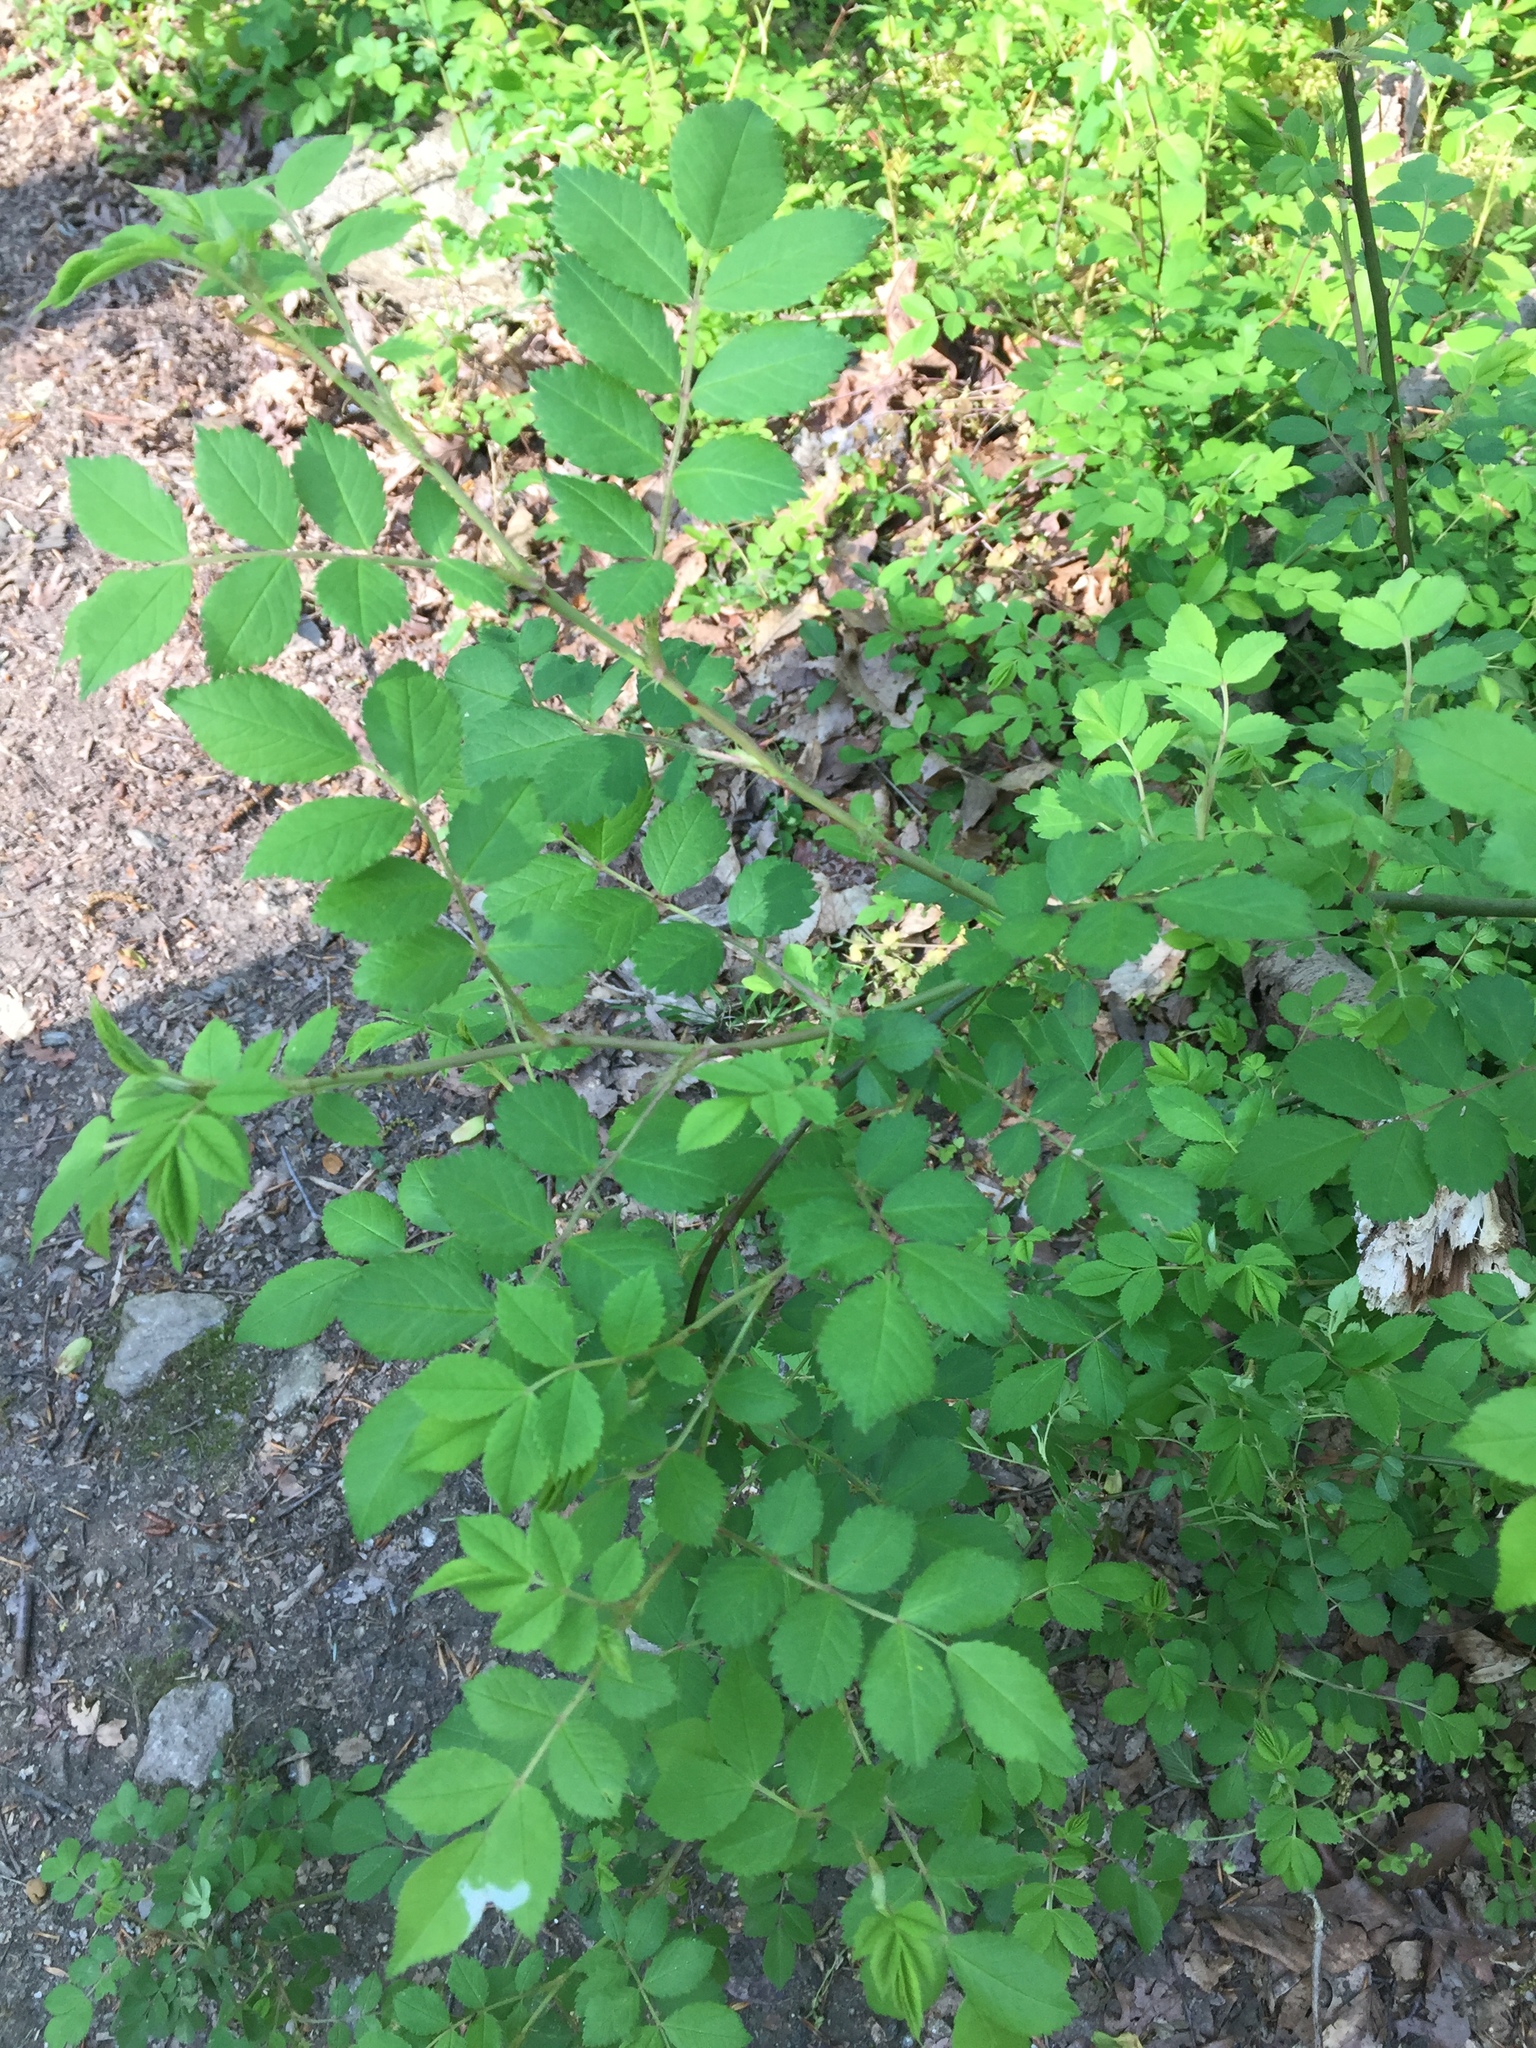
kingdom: Plantae
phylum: Tracheophyta
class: Magnoliopsida
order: Rosales
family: Rosaceae
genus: Rosa
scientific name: Rosa multiflora
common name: Multiflora rose
